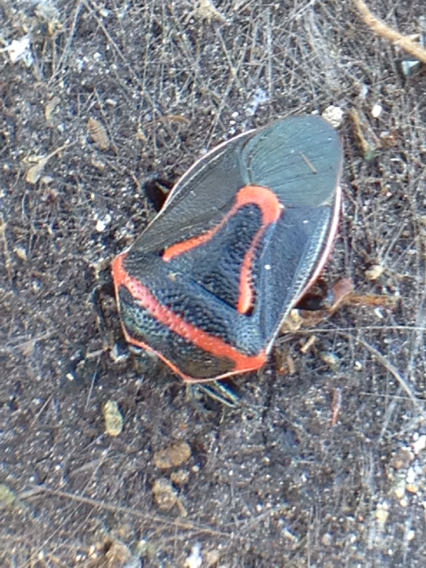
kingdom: Animalia
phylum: Arthropoda
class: Insecta
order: Hemiptera
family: Pentatomidae
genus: Perillus
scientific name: Perillus splendidus
